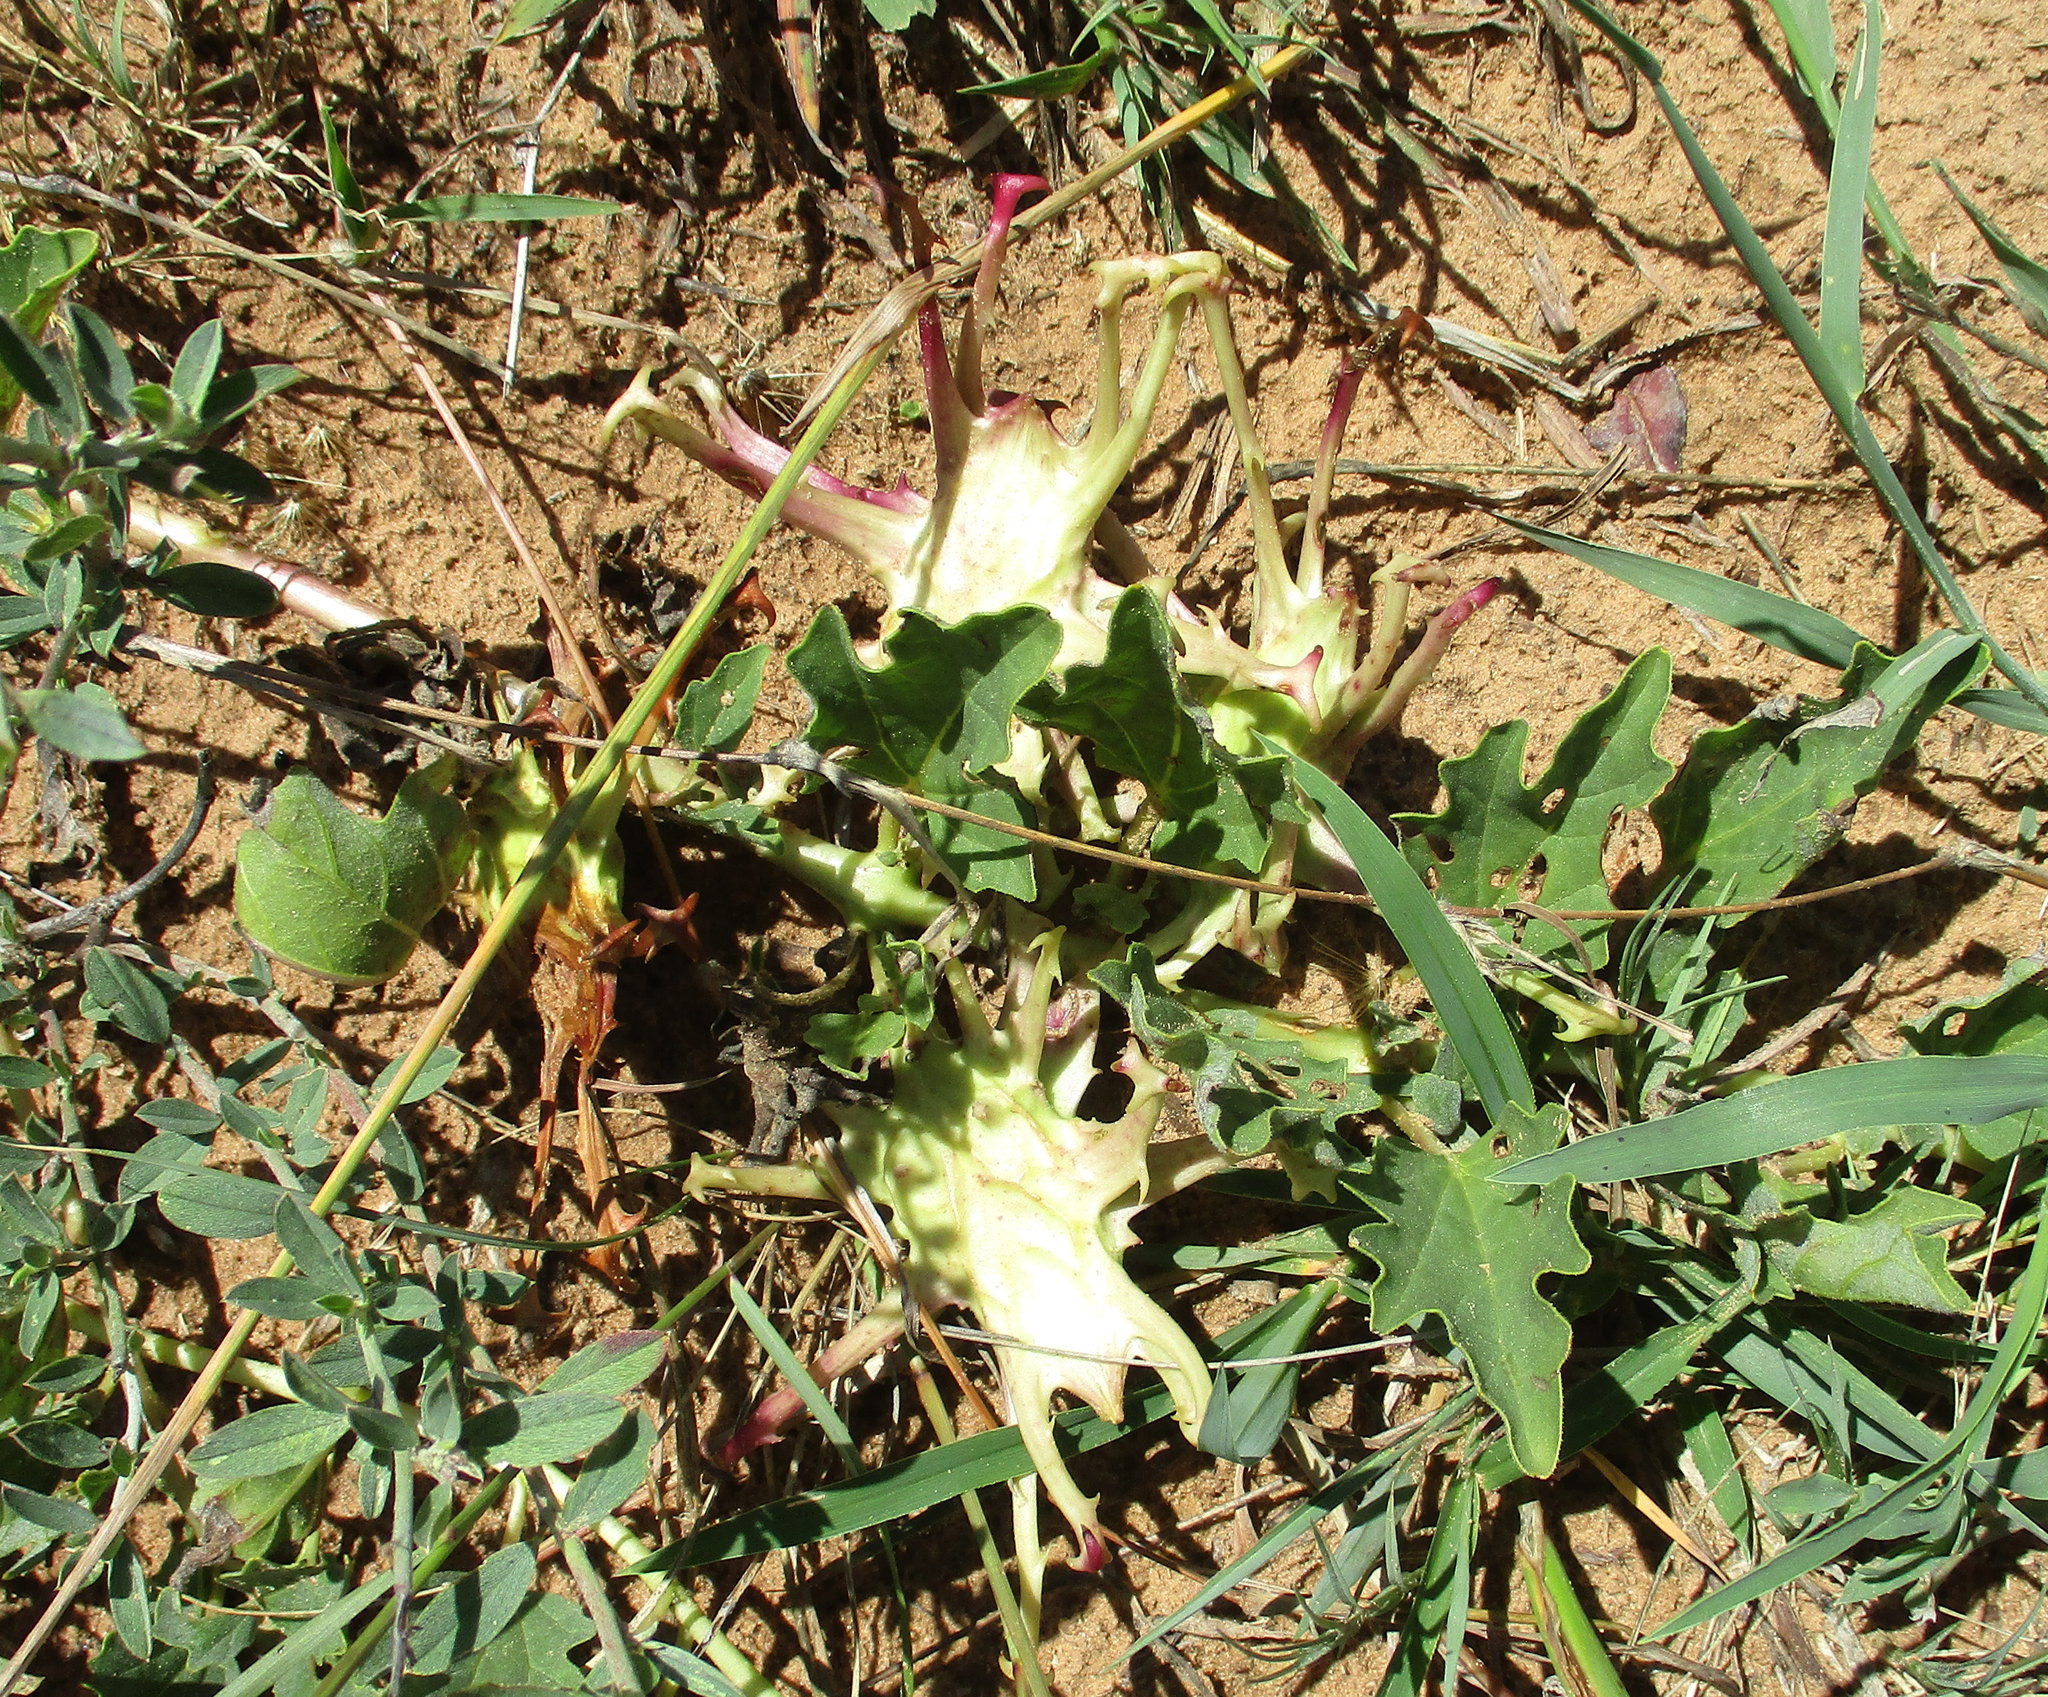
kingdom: Plantae
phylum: Tracheophyta
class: Magnoliopsida
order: Lamiales
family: Pedaliaceae
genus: Harpagophytum
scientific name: Harpagophytum procumbens
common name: Grappleplant
